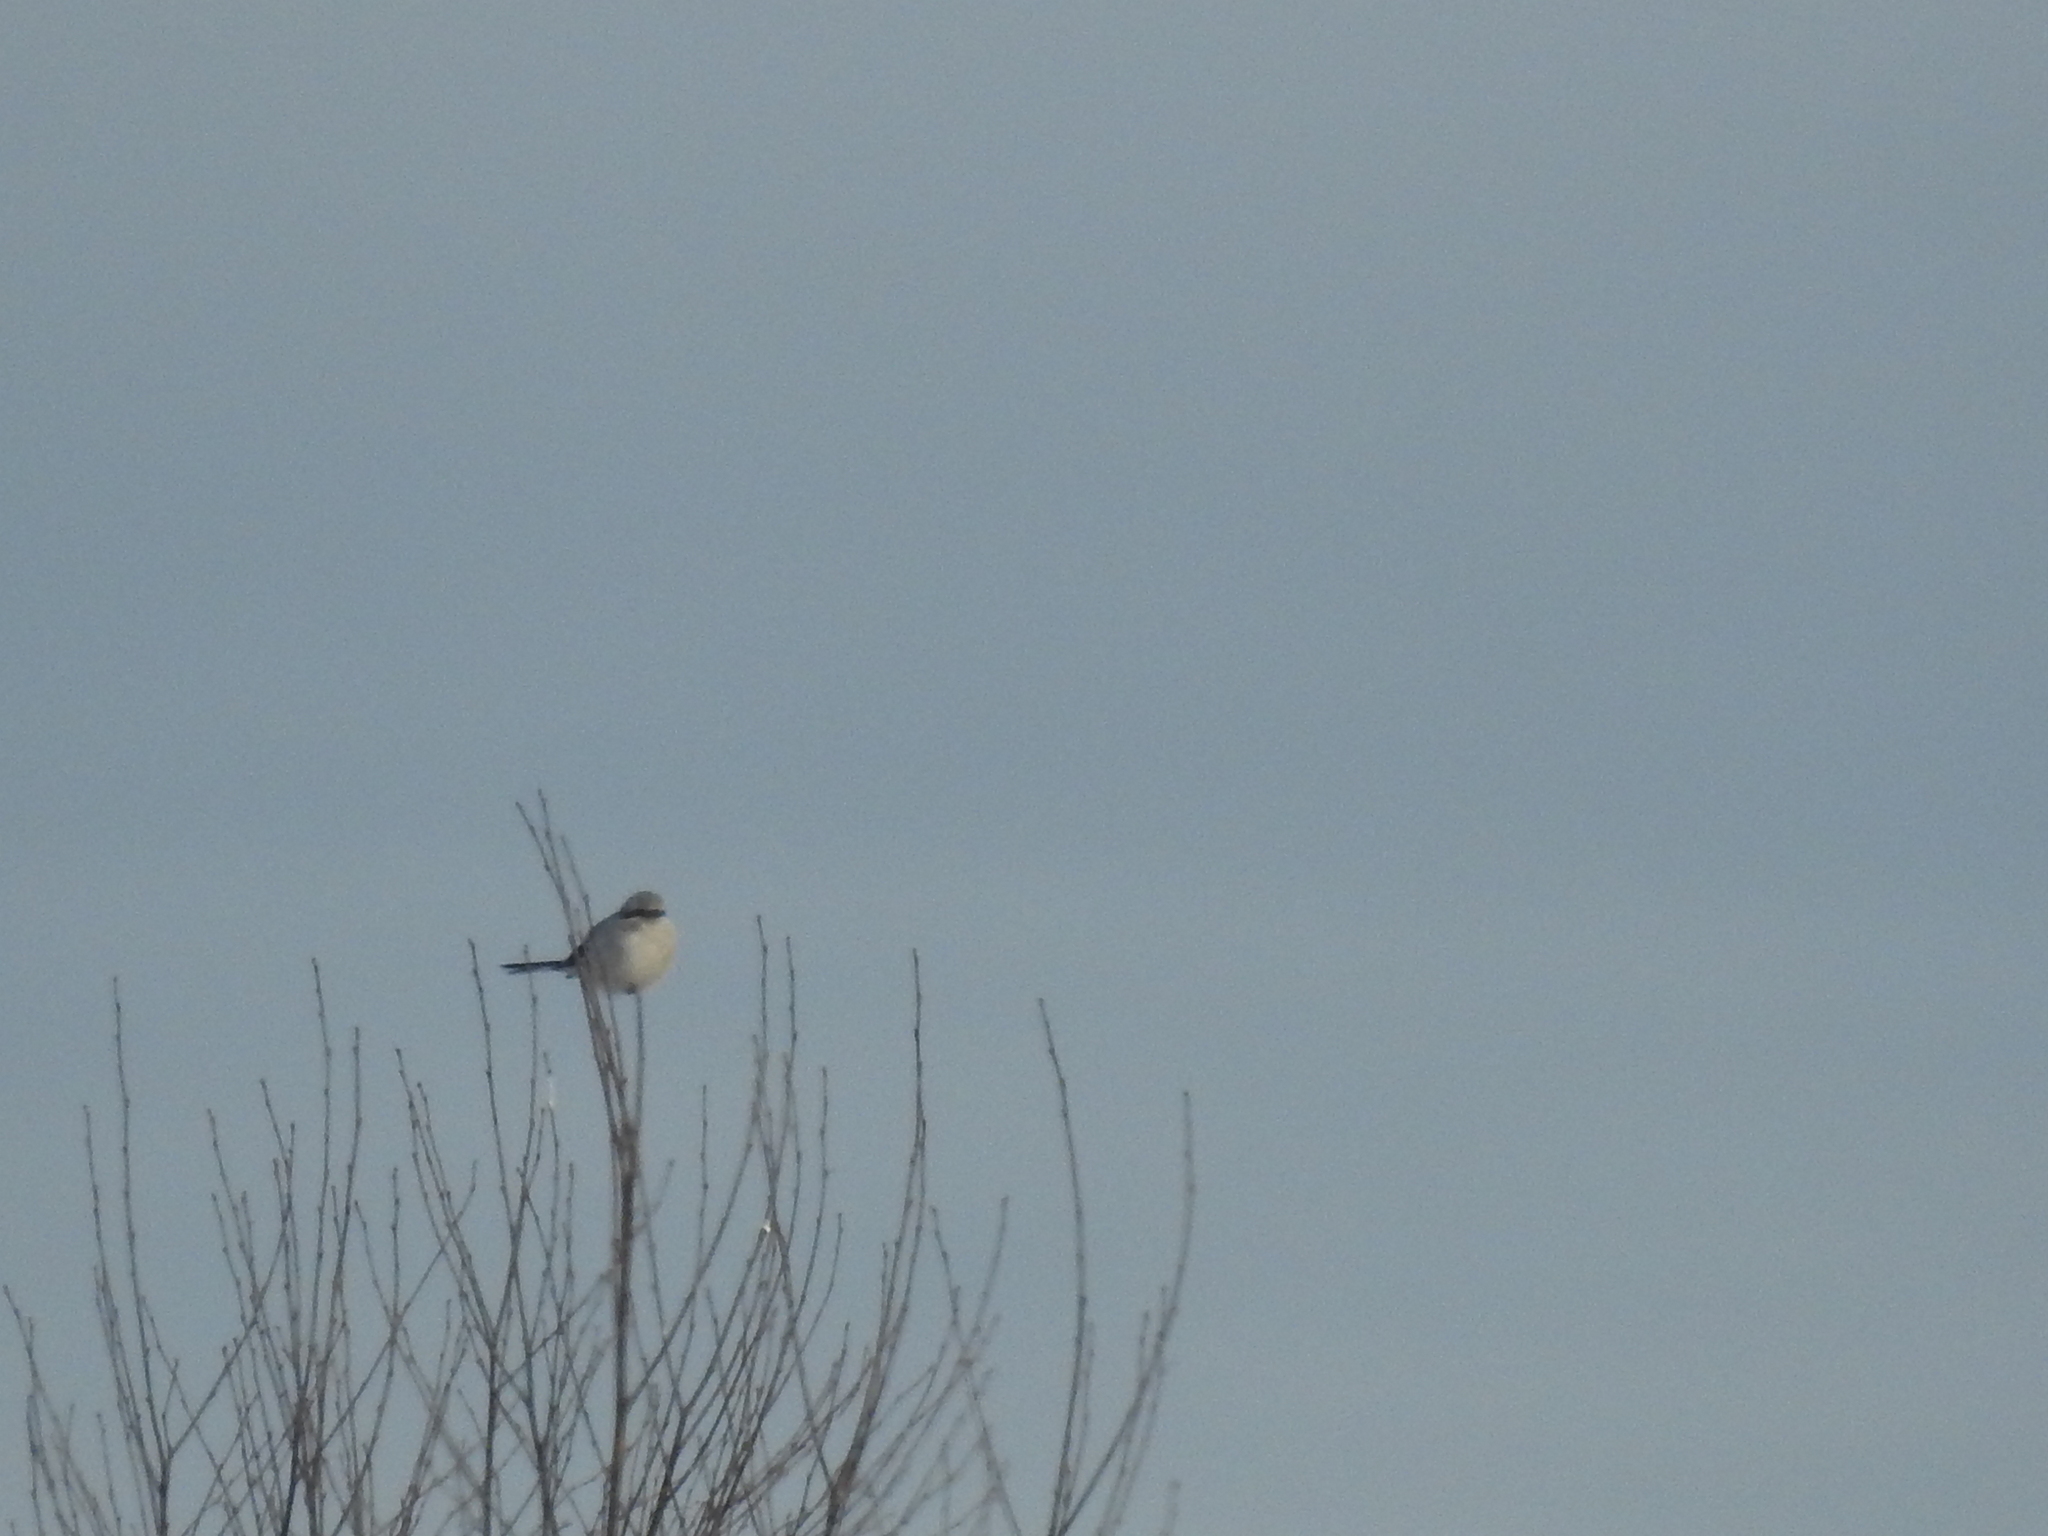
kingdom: Animalia
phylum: Chordata
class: Aves
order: Passeriformes
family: Laniidae
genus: Lanius
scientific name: Lanius excubitor
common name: Great grey shrike
